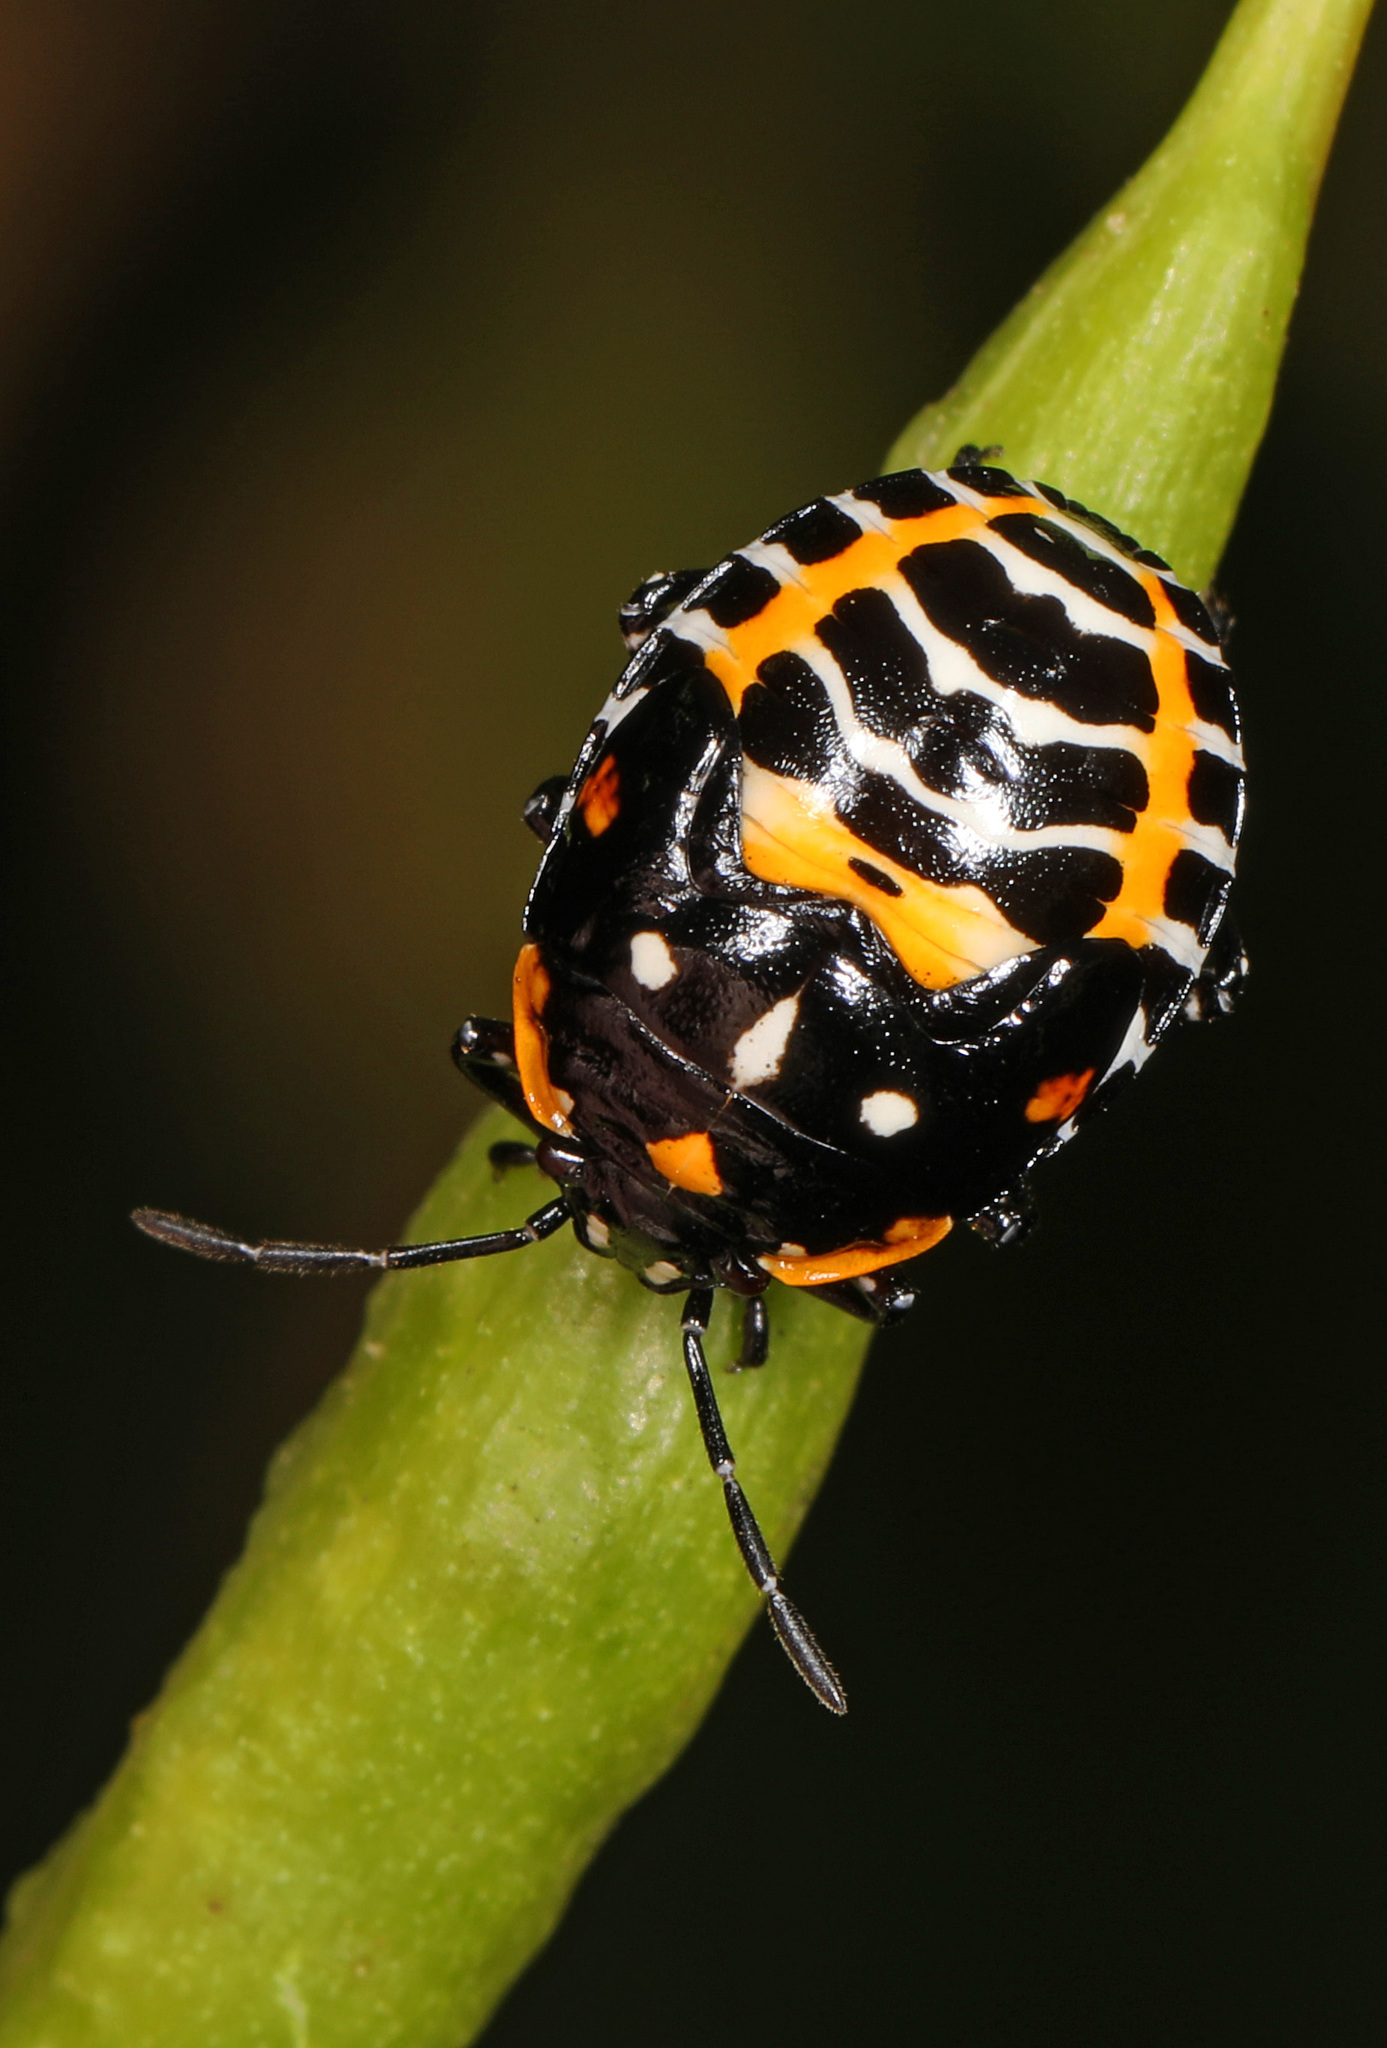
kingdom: Animalia
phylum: Arthropoda
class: Insecta
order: Hemiptera
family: Pentatomidae
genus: Murgantia
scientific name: Murgantia histrionica
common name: Harlequin bug
